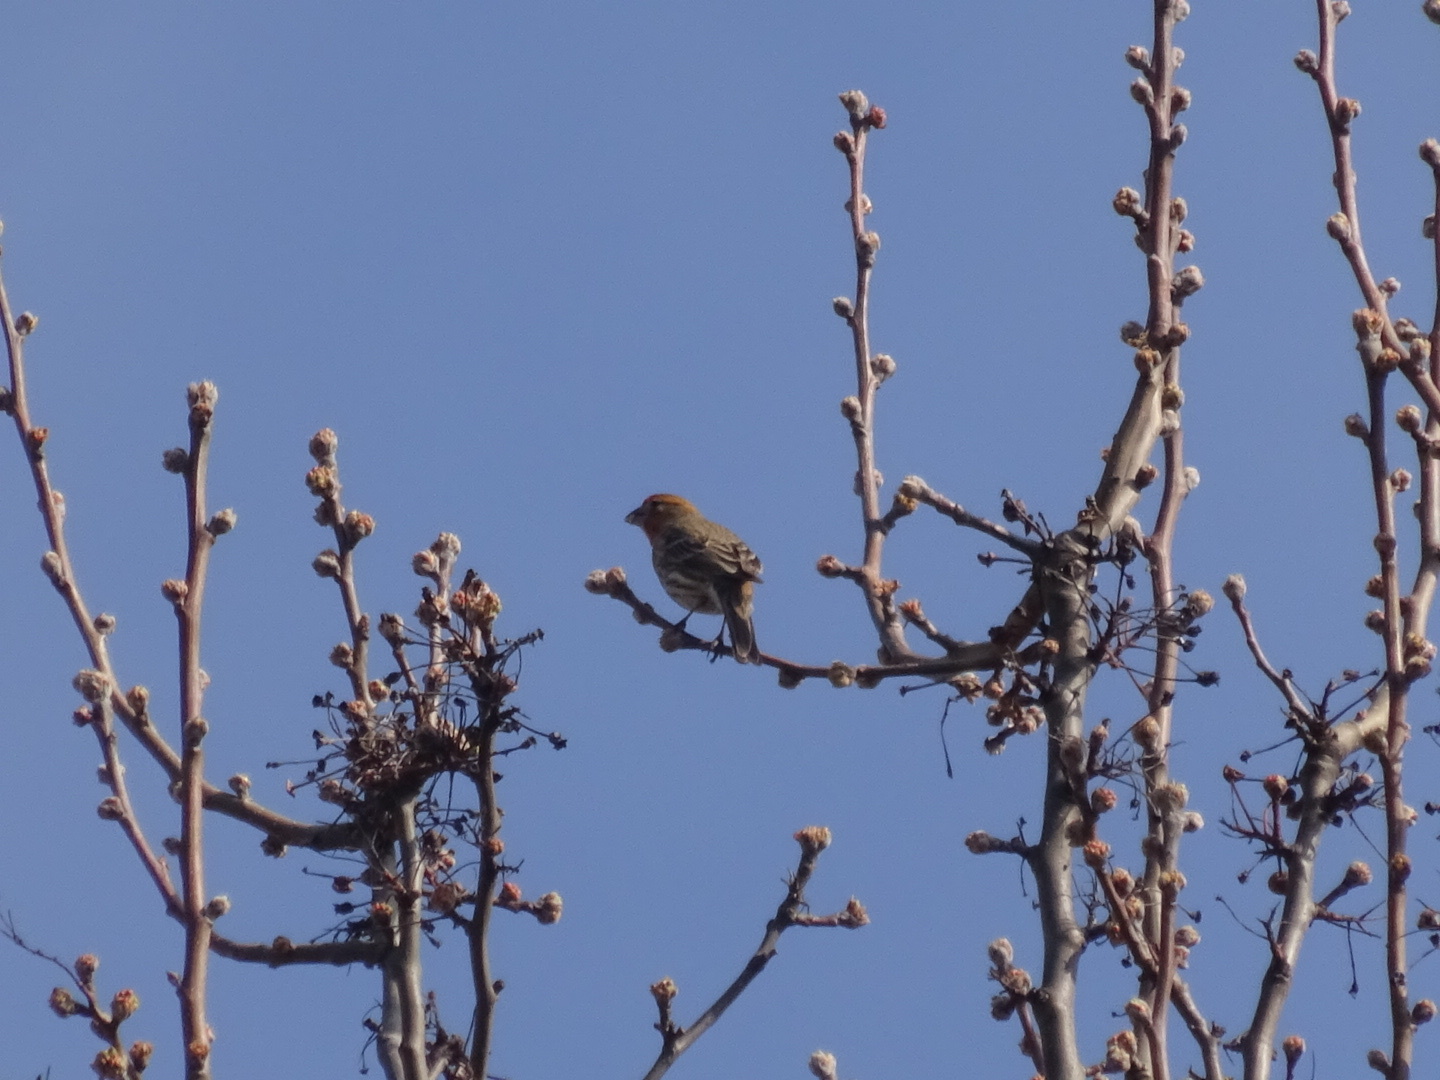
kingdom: Animalia
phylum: Chordata
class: Aves
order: Passeriformes
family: Fringillidae
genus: Haemorhous
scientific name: Haemorhous mexicanus
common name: House finch
